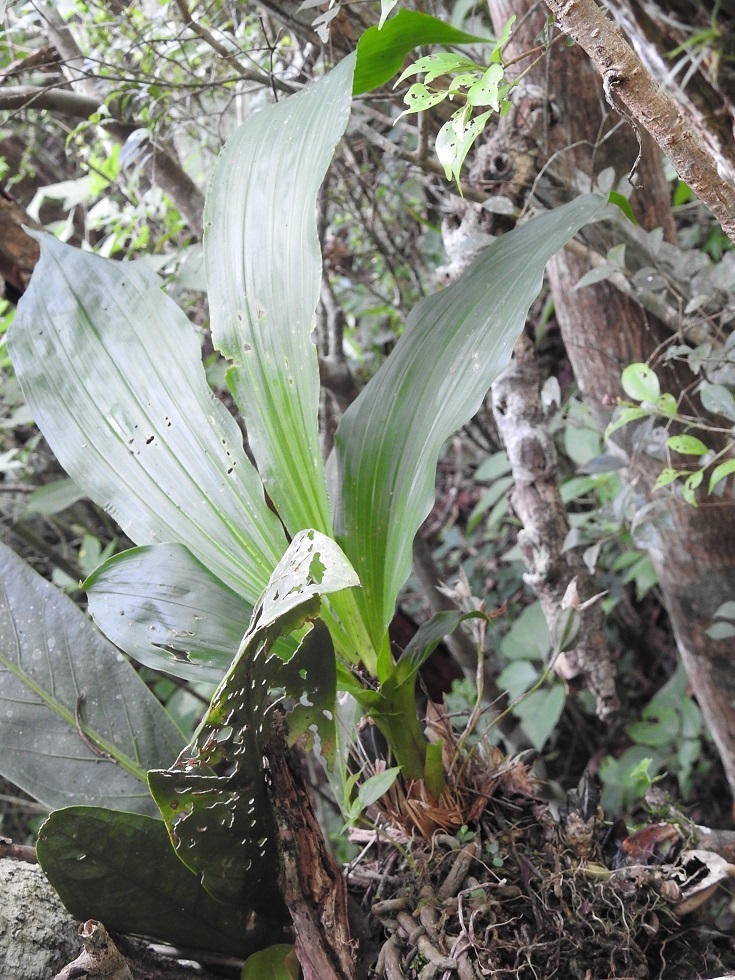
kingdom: Plantae
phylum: Tracheophyta
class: Liliopsida
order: Asparagales
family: Orchidaceae
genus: Lycaste
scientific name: Lycaste aromatica
